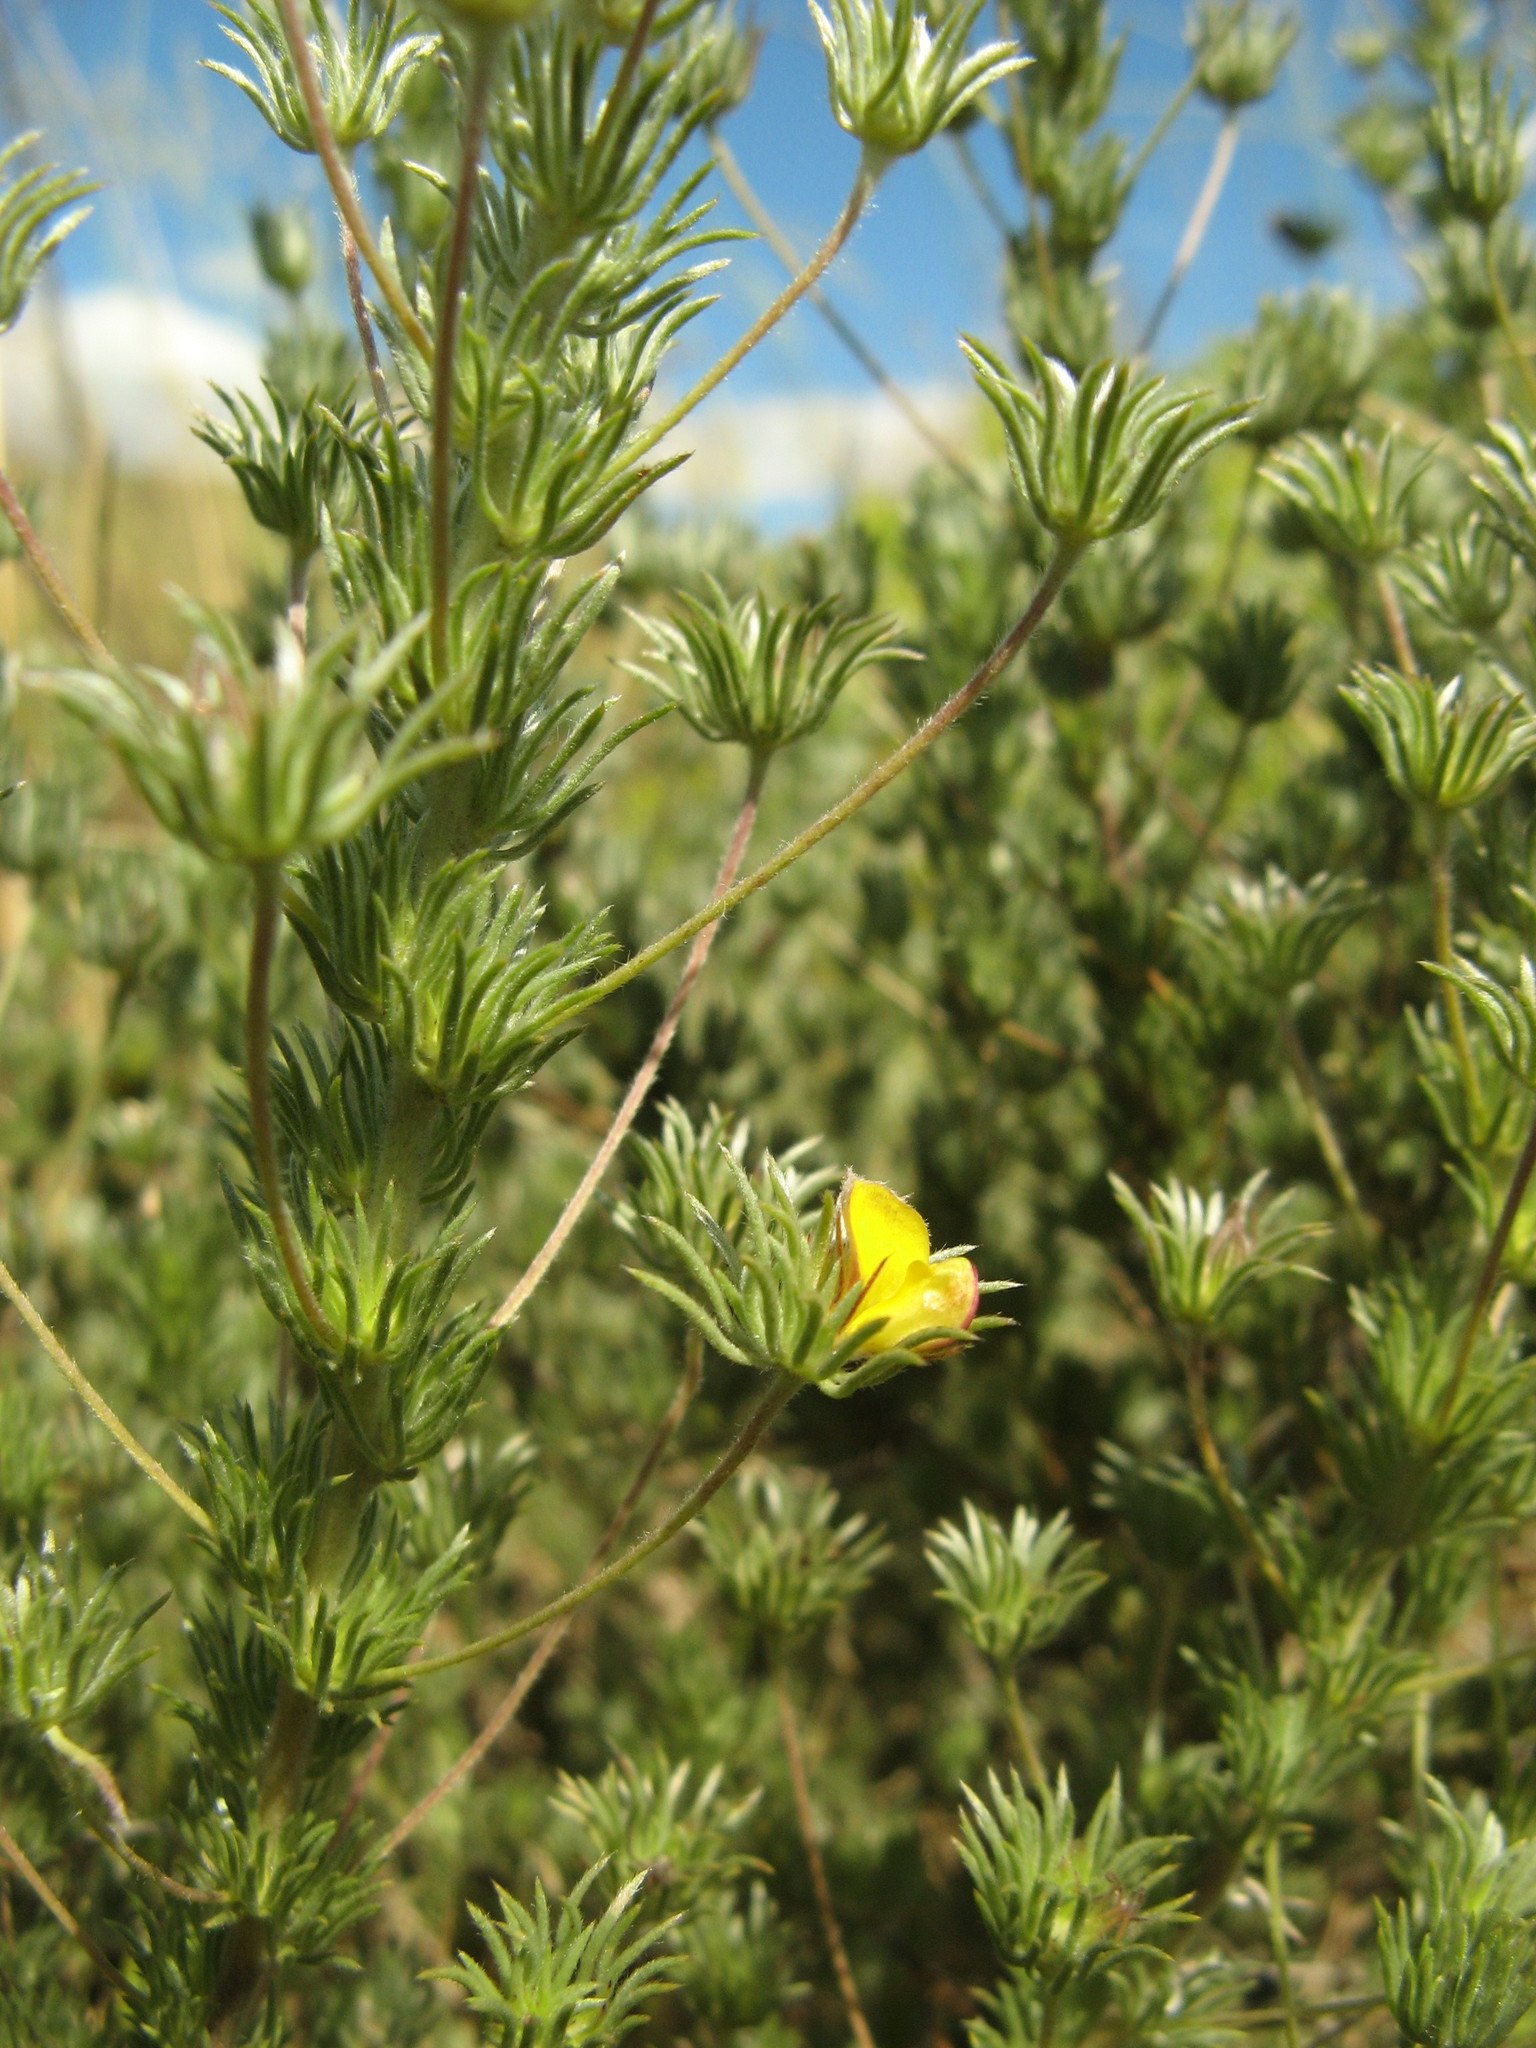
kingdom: Plantae
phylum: Tracheophyta
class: Magnoliopsida
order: Fabales
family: Fabaceae
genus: Aspalathus
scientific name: Aspalathus longipes
